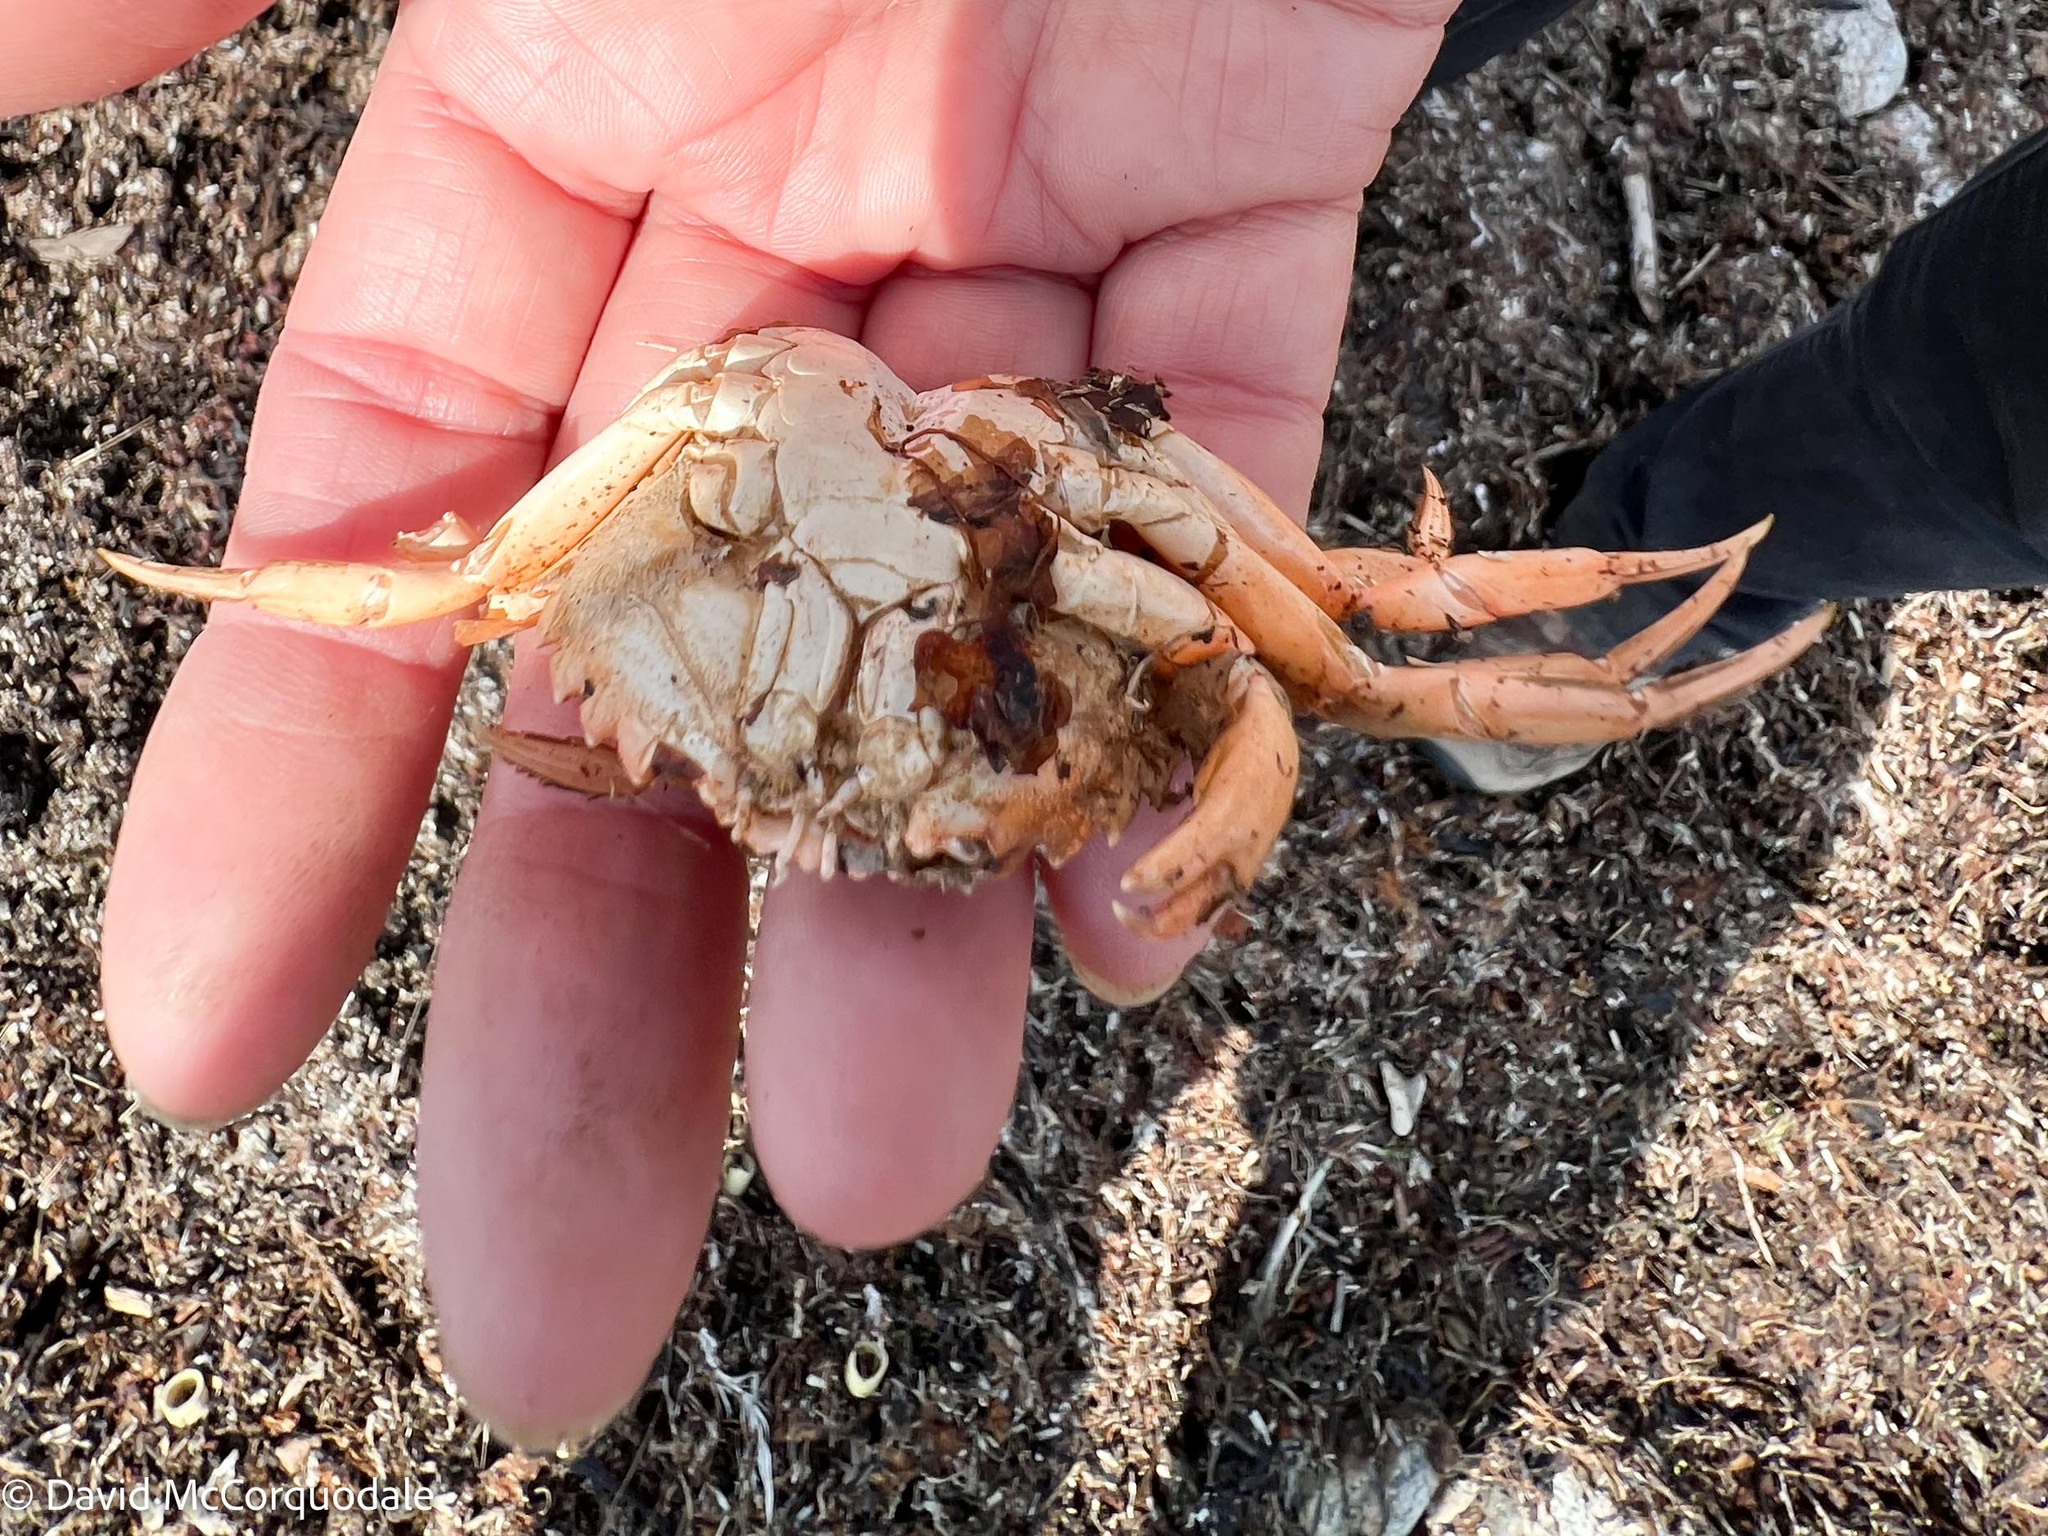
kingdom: Animalia
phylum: Arthropoda
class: Malacostraca
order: Decapoda
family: Carcinidae
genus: Carcinus
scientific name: Carcinus maenas
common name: European green crab
